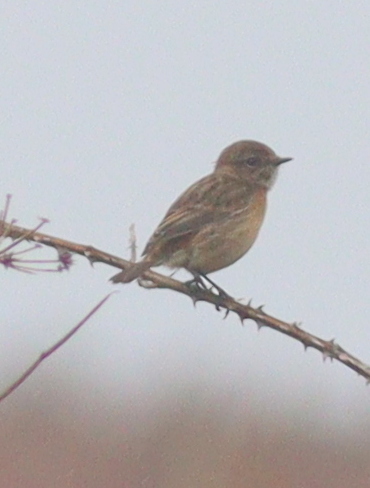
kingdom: Animalia
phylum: Chordata
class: Aves
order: Passeriformes
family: Muscicapidae
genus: Saxicola
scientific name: Saxicola rubicola
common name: European stonechat
